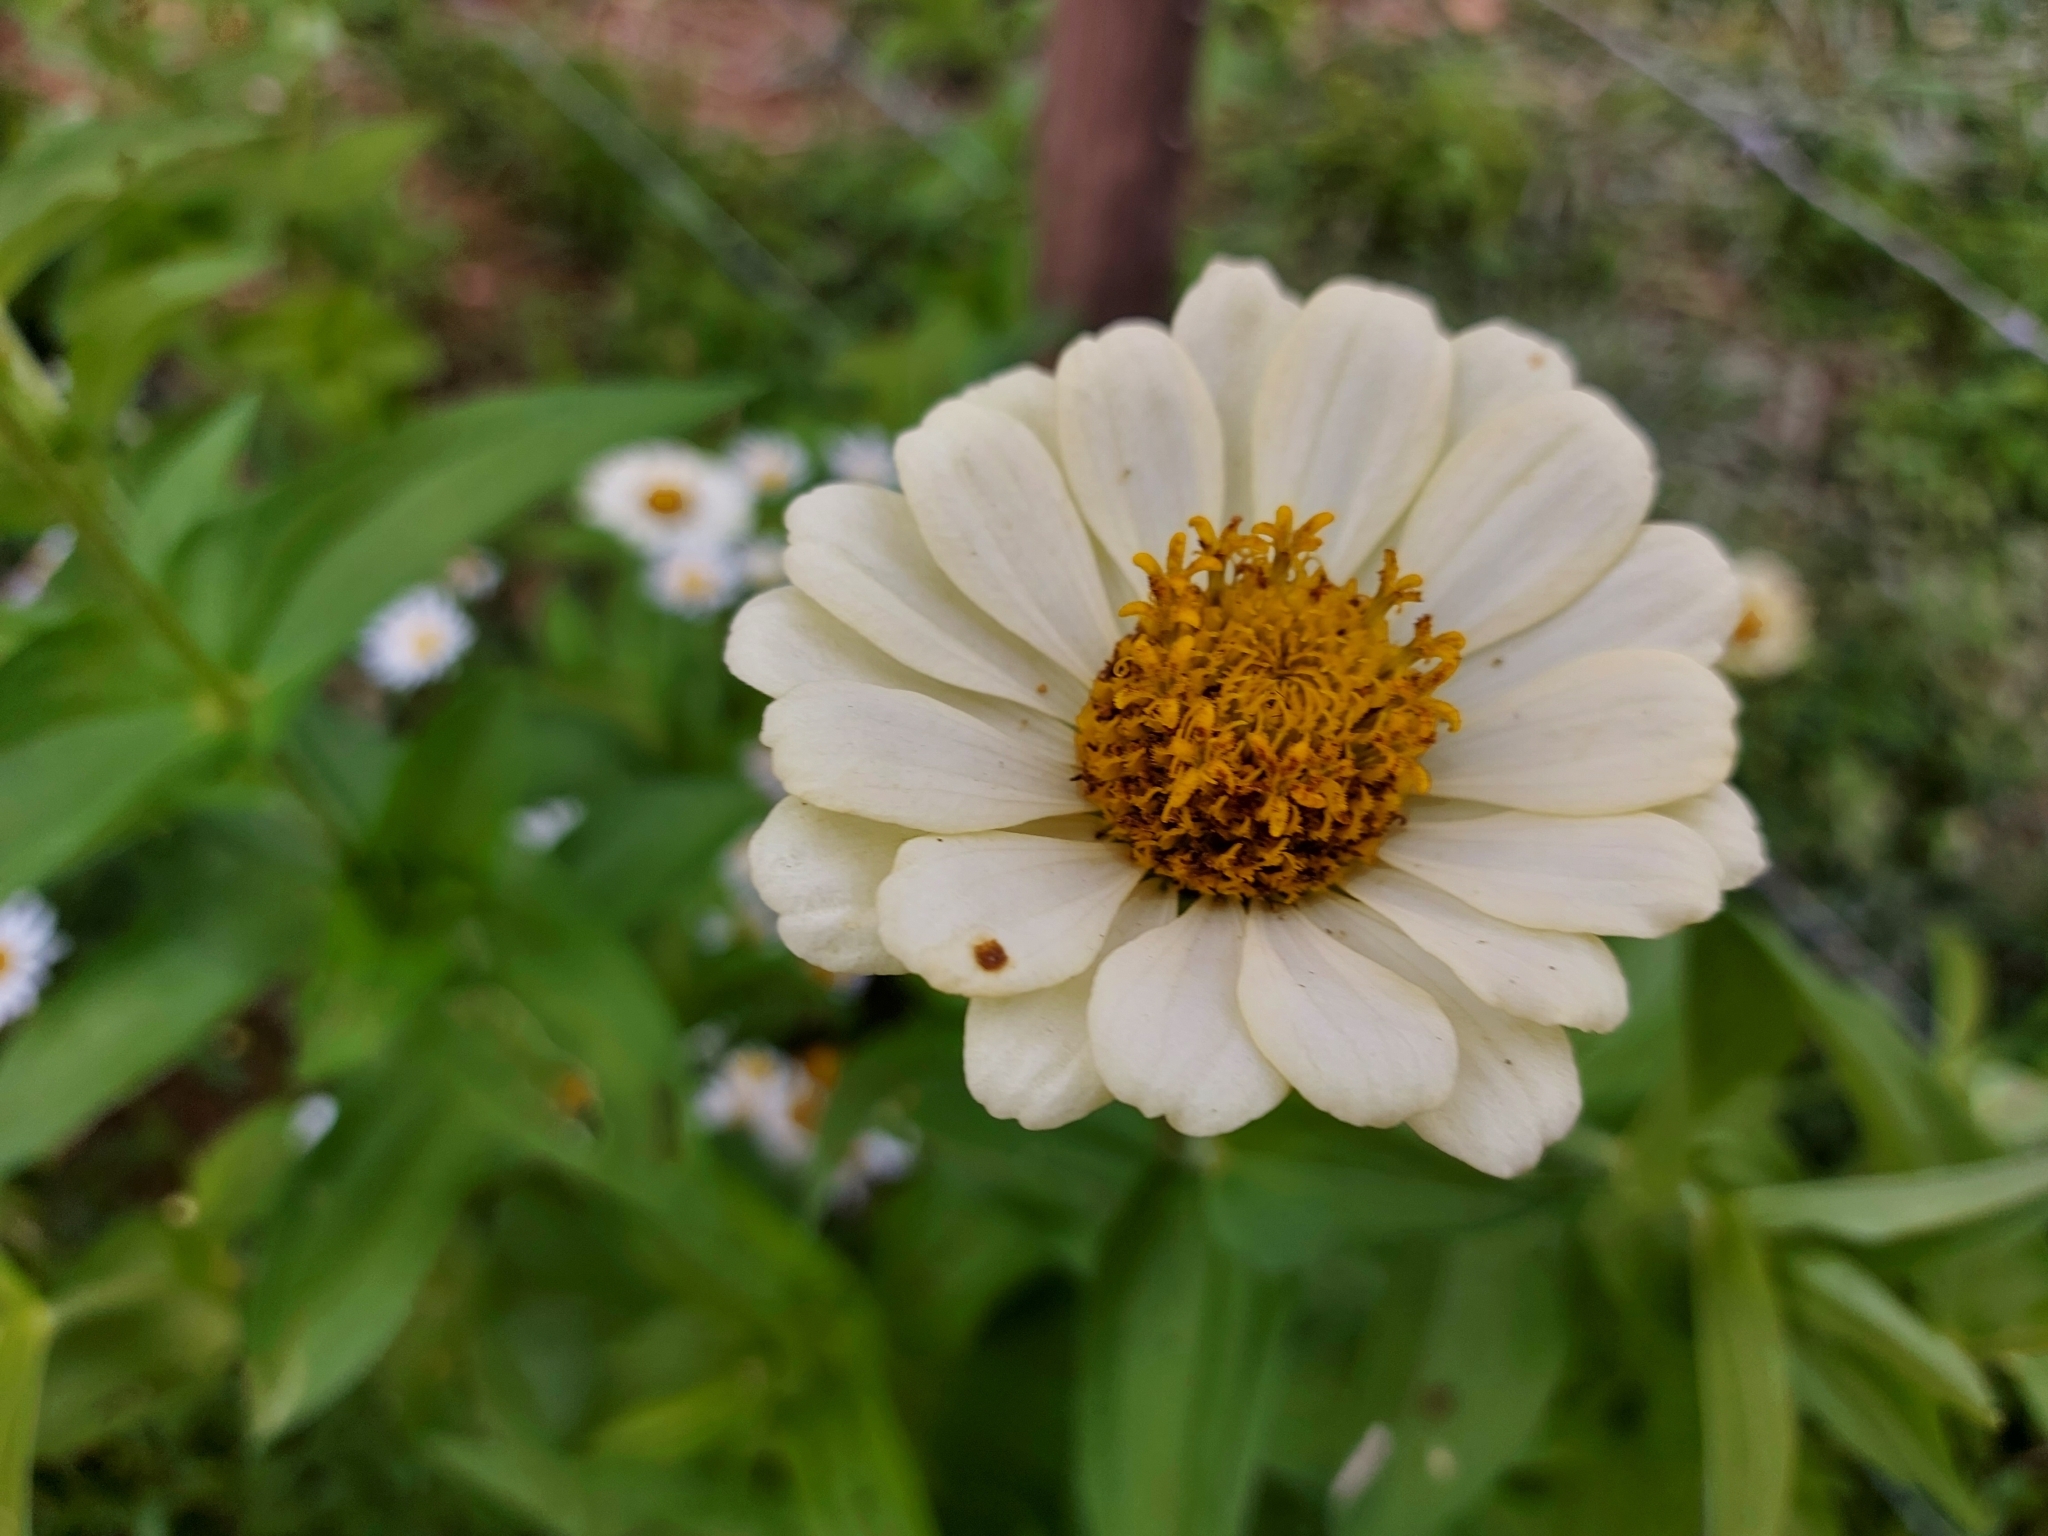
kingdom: Plantae
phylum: Tracheophyta
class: Magnoliopsida
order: Asterales
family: Asteraceae
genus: Zinnia
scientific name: Zinnia elegans
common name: Youth-and-age
